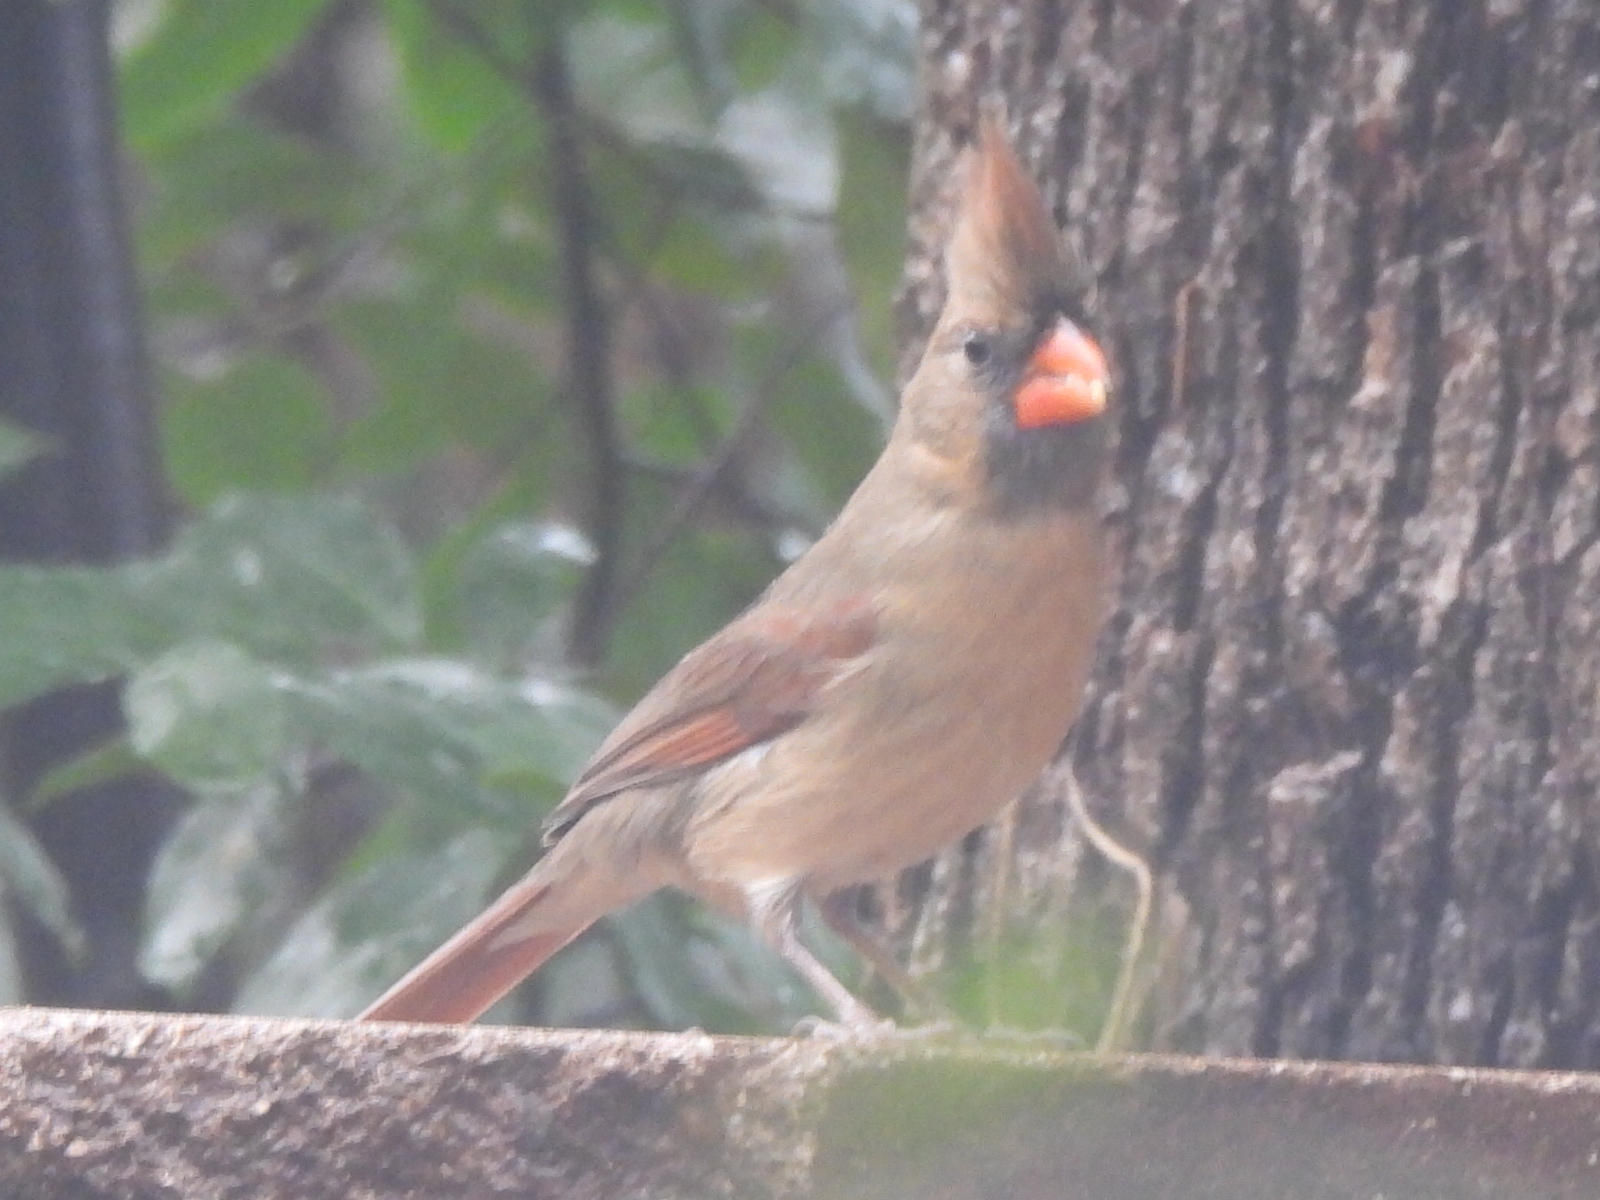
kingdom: Animalia
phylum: Chordata
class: Aves
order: Passeriformes
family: Cardinalidae
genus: Cardinalis
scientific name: Cardinalis cardinalis
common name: Northern cardinal
